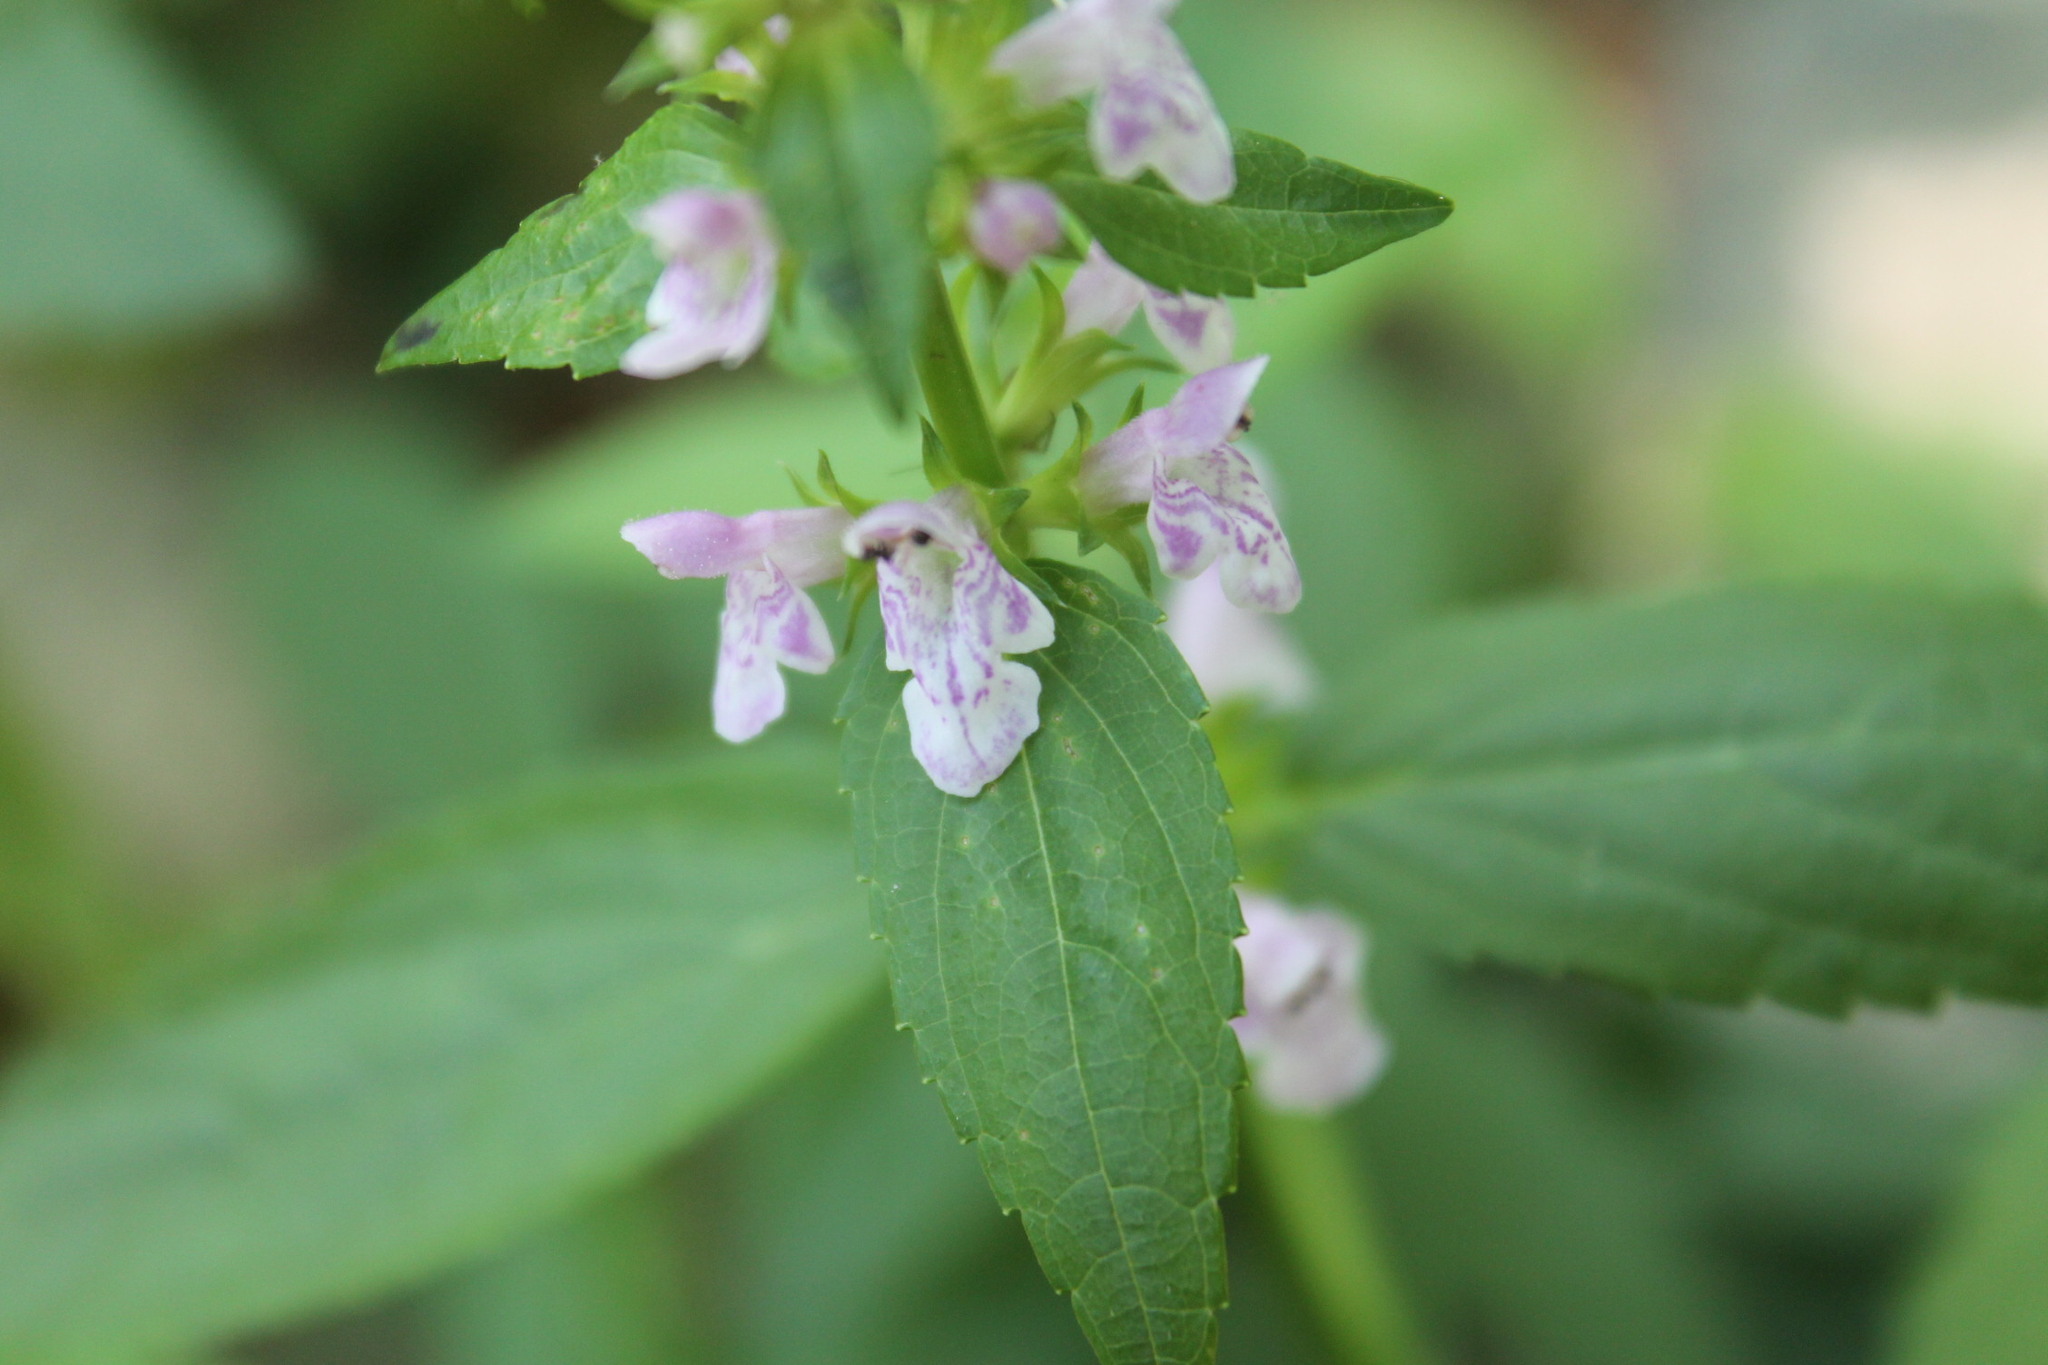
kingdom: Plantae
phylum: Tracheophyta
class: Magnoliopsida
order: Lamiales
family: Lamiaceae
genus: Stachys
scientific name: Stachys tenuifolia
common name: Smooth hedge-nettle
